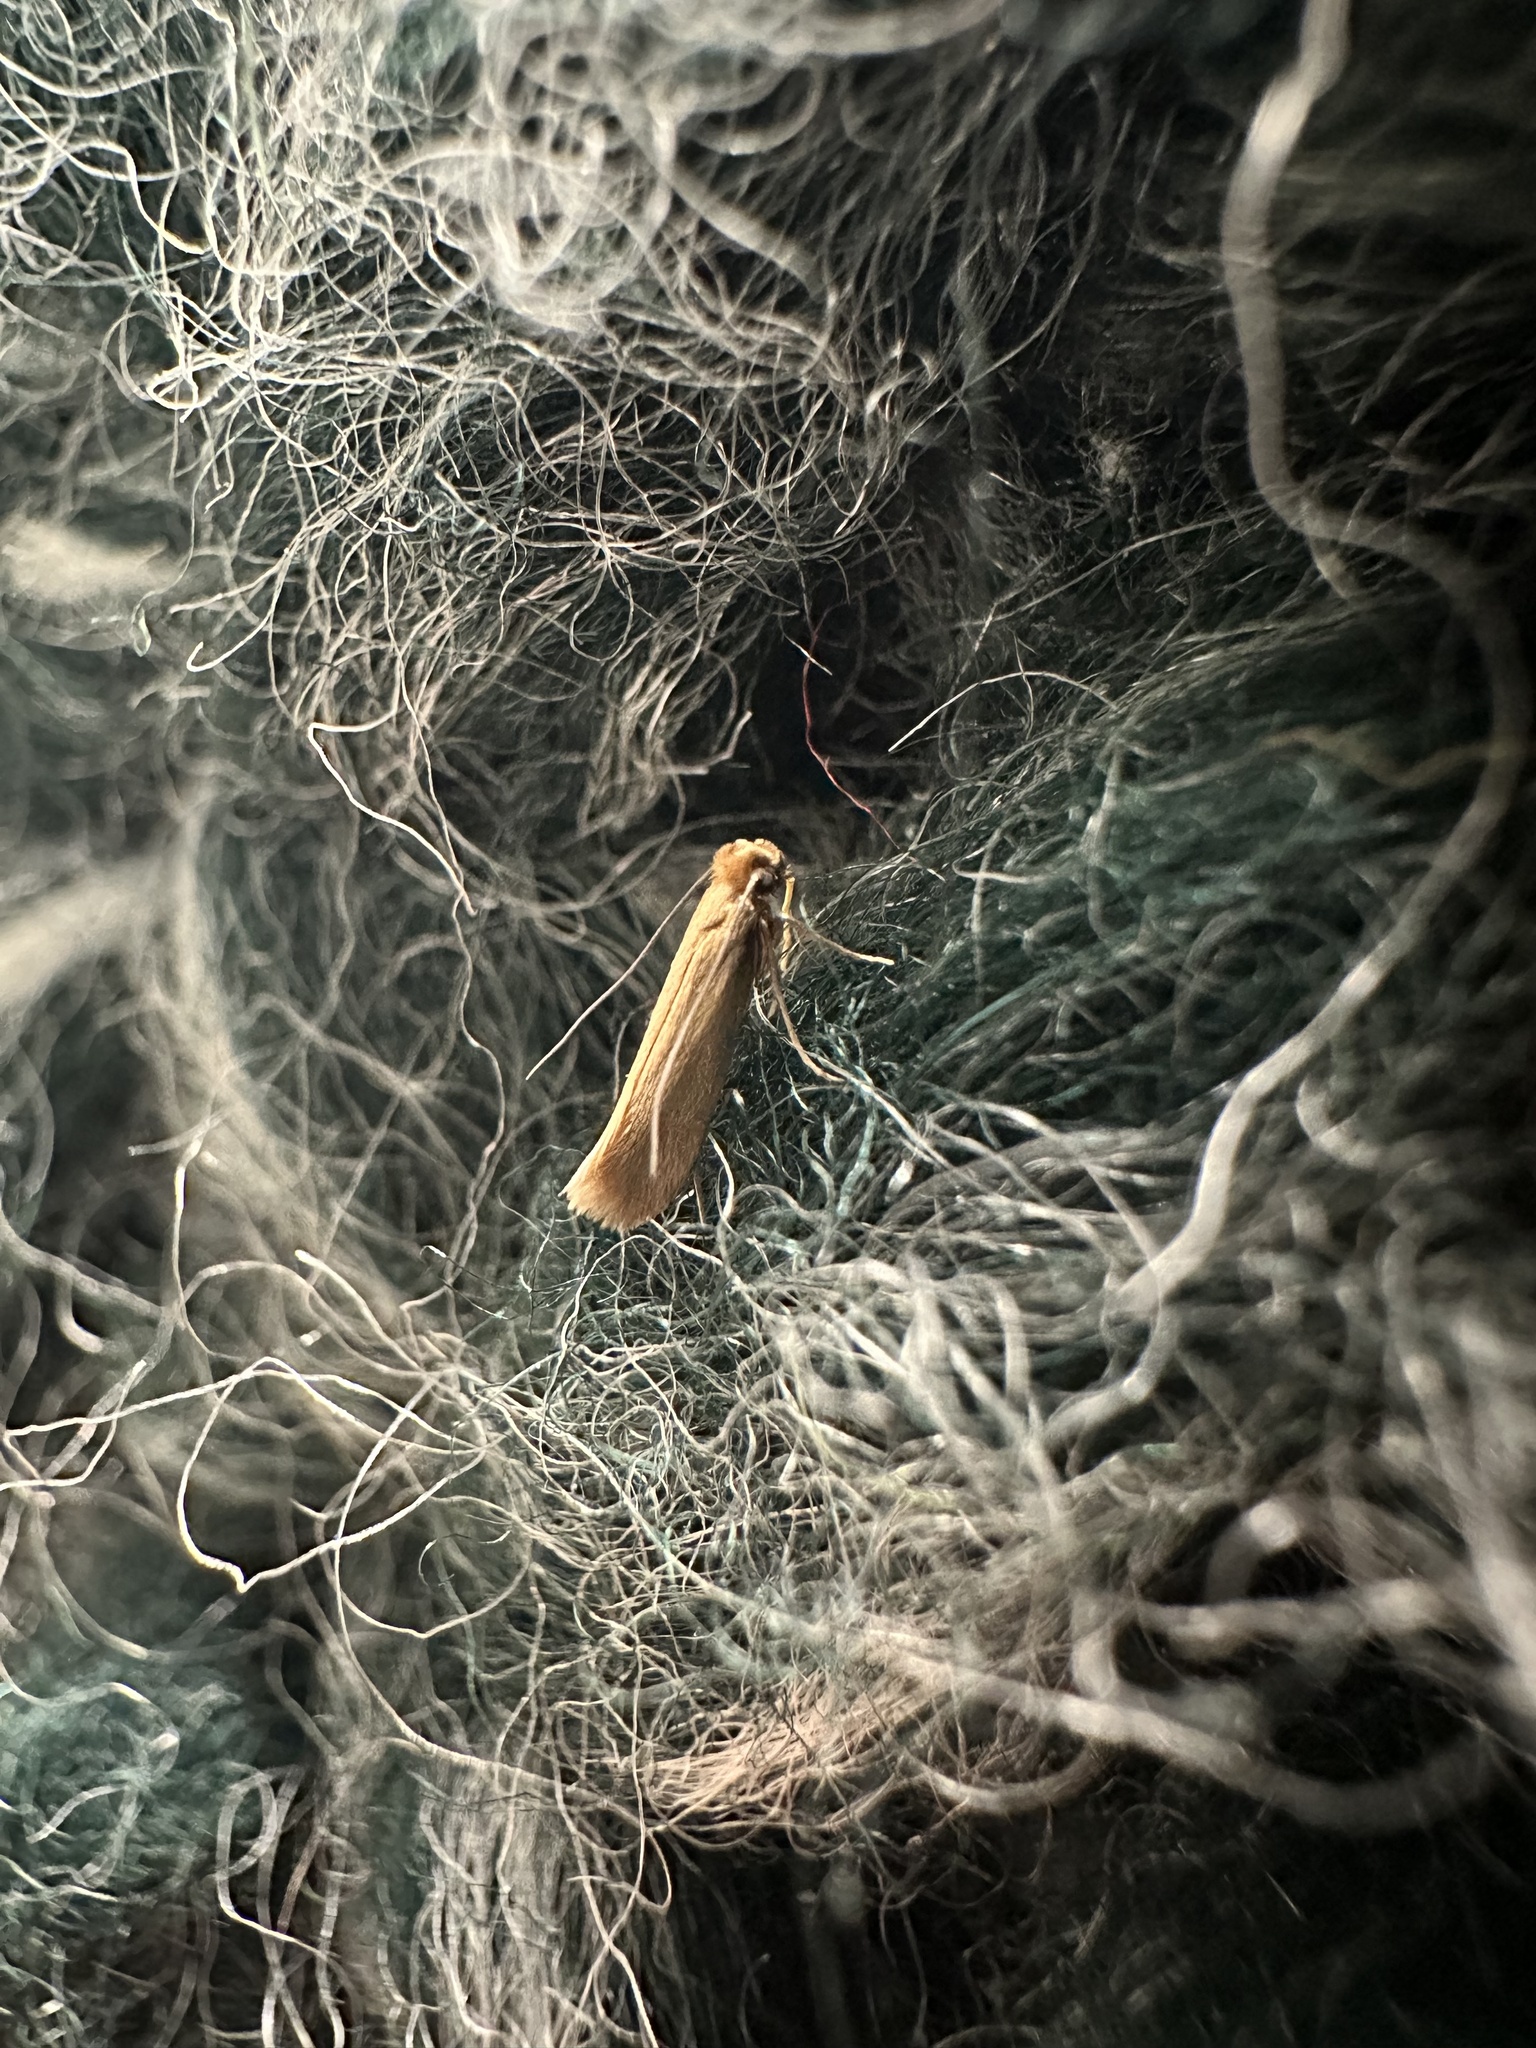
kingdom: Animalia
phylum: Arthropoda
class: Insecta
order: Lepidoptera
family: Tineidae
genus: Tineola
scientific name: Tineola bisselliella
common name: Webbing clothes moth
